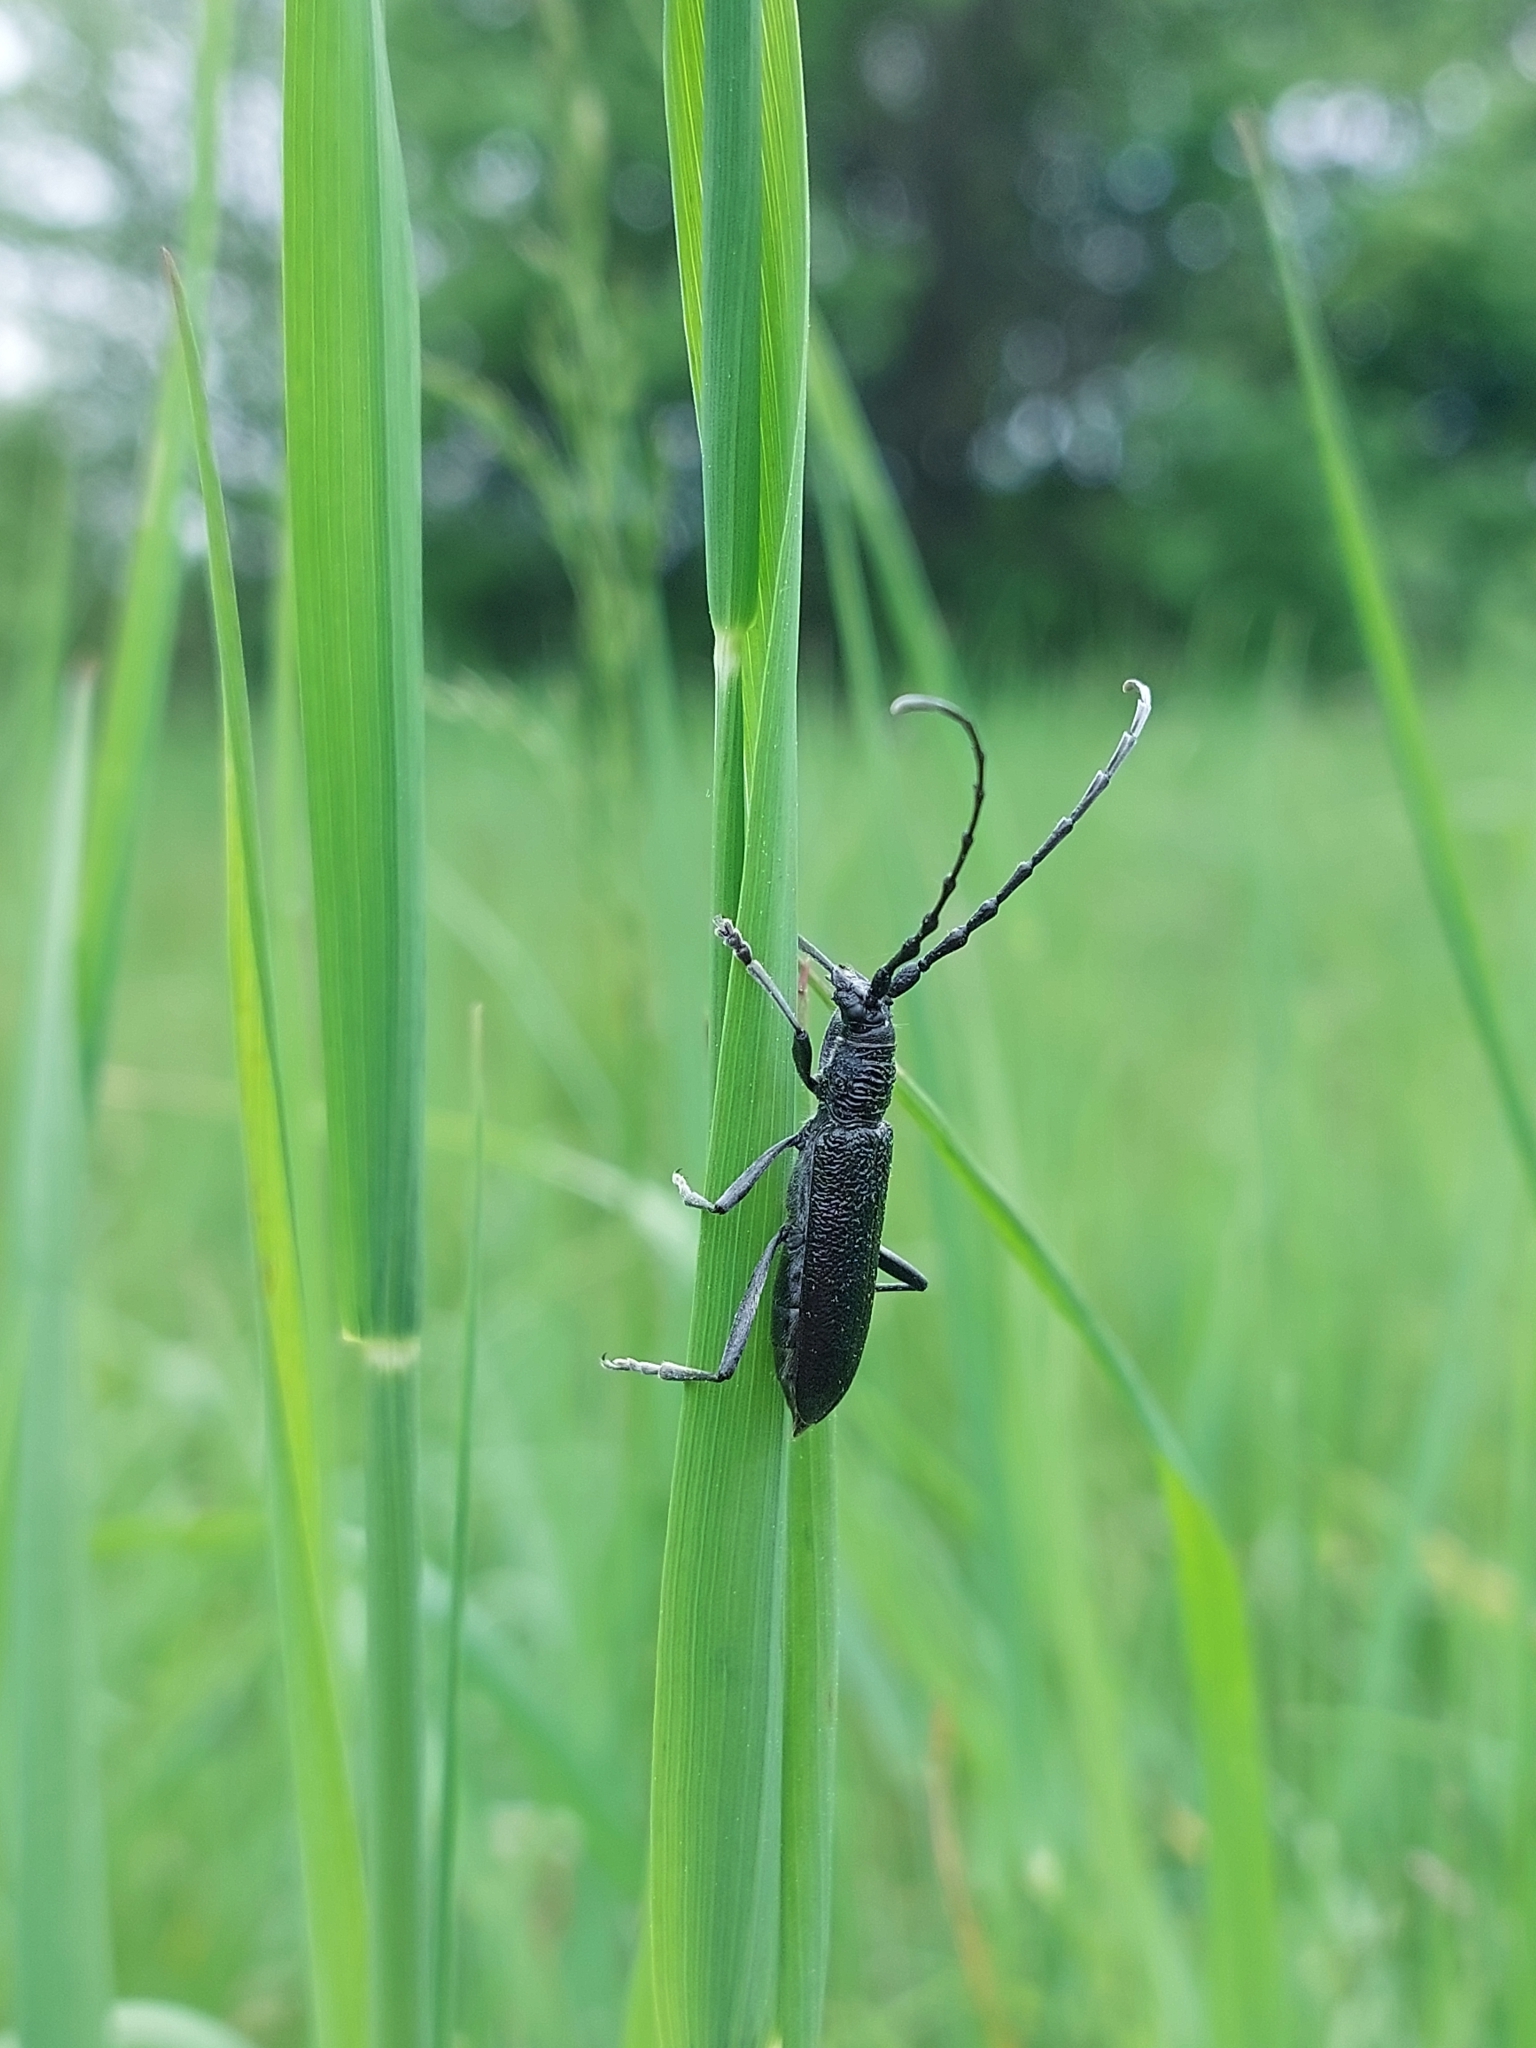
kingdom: Animalia
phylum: Arthropoda
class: Insecta
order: Coleoptera
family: Cerambycidae
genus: Cerambyx
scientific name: Cerambyx scopolii
